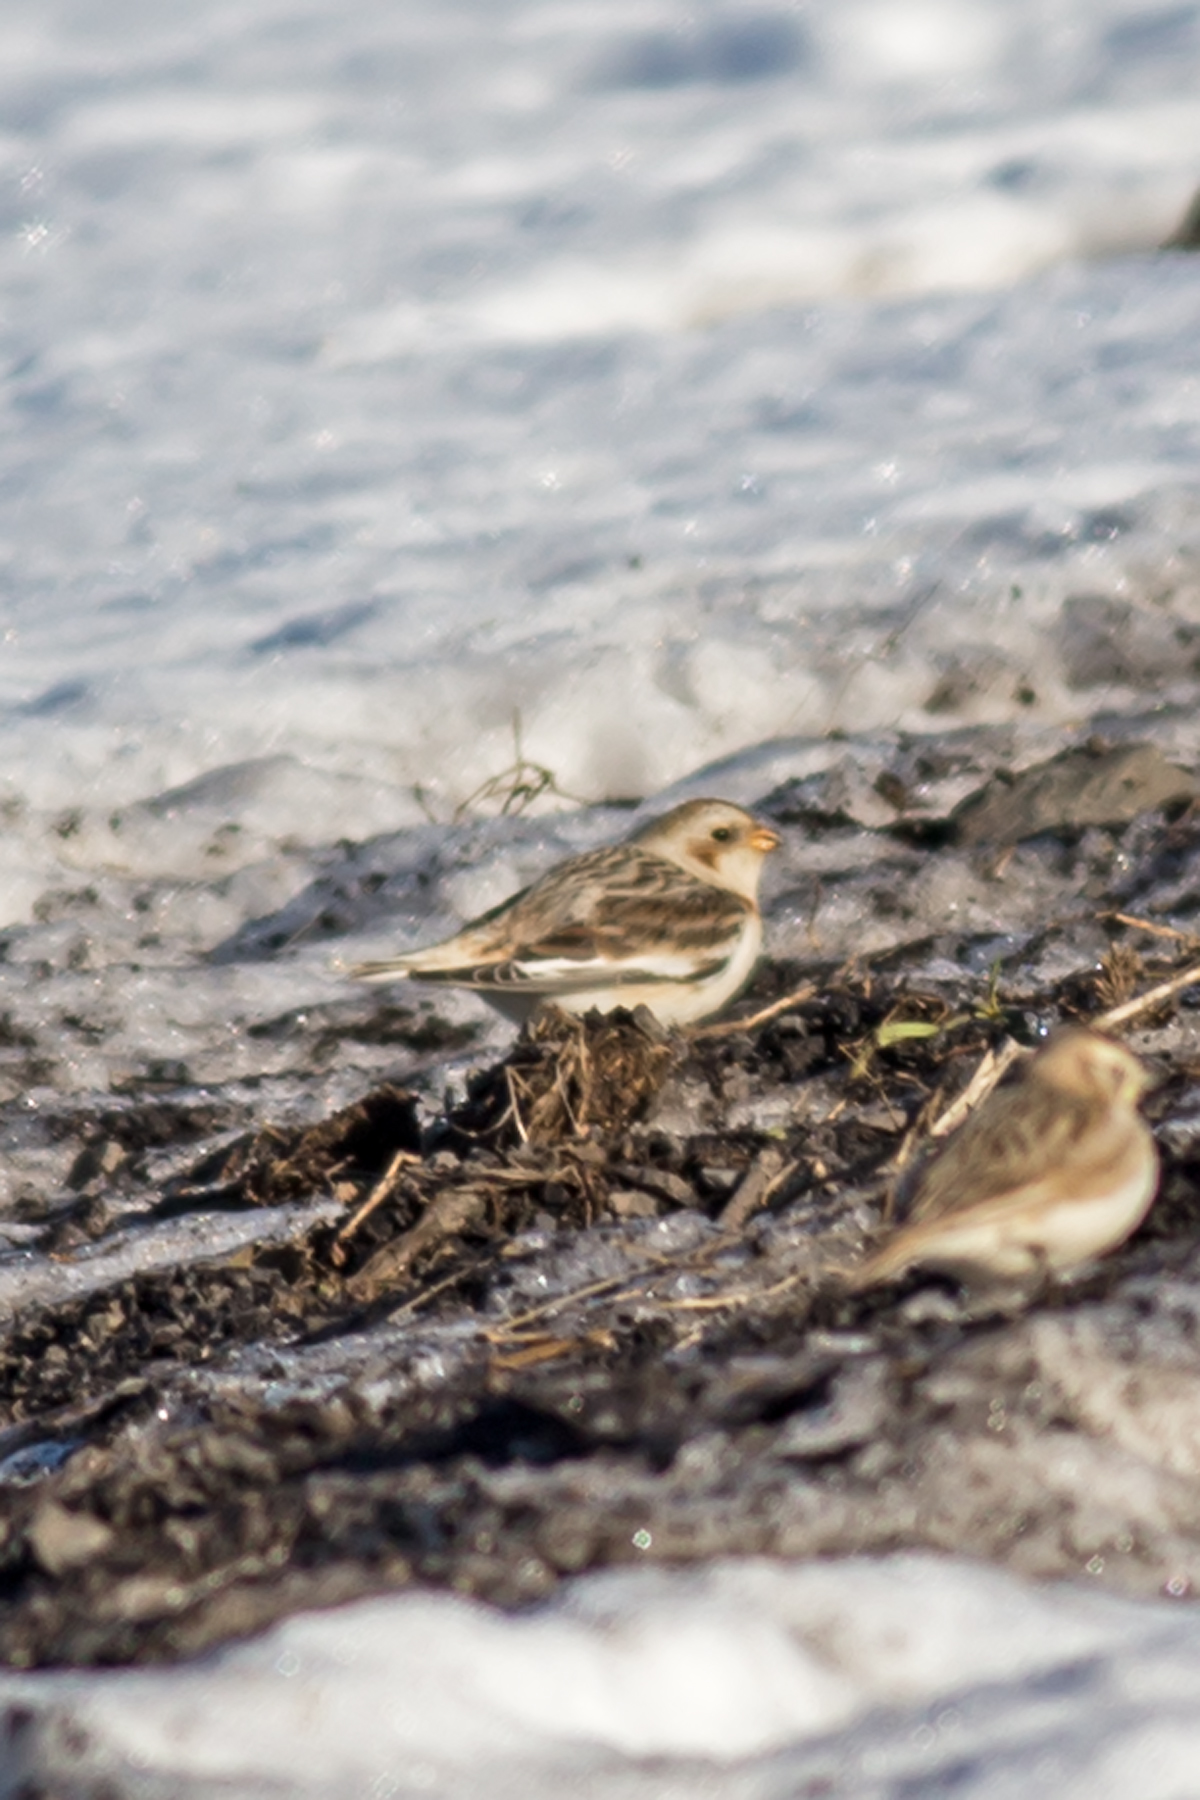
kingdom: Animalia
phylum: Chordata
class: Aves
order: Passeriformes
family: Calcariidae
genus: Plectrophenax
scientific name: Plectrophenax nivalis
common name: Snow bunting
